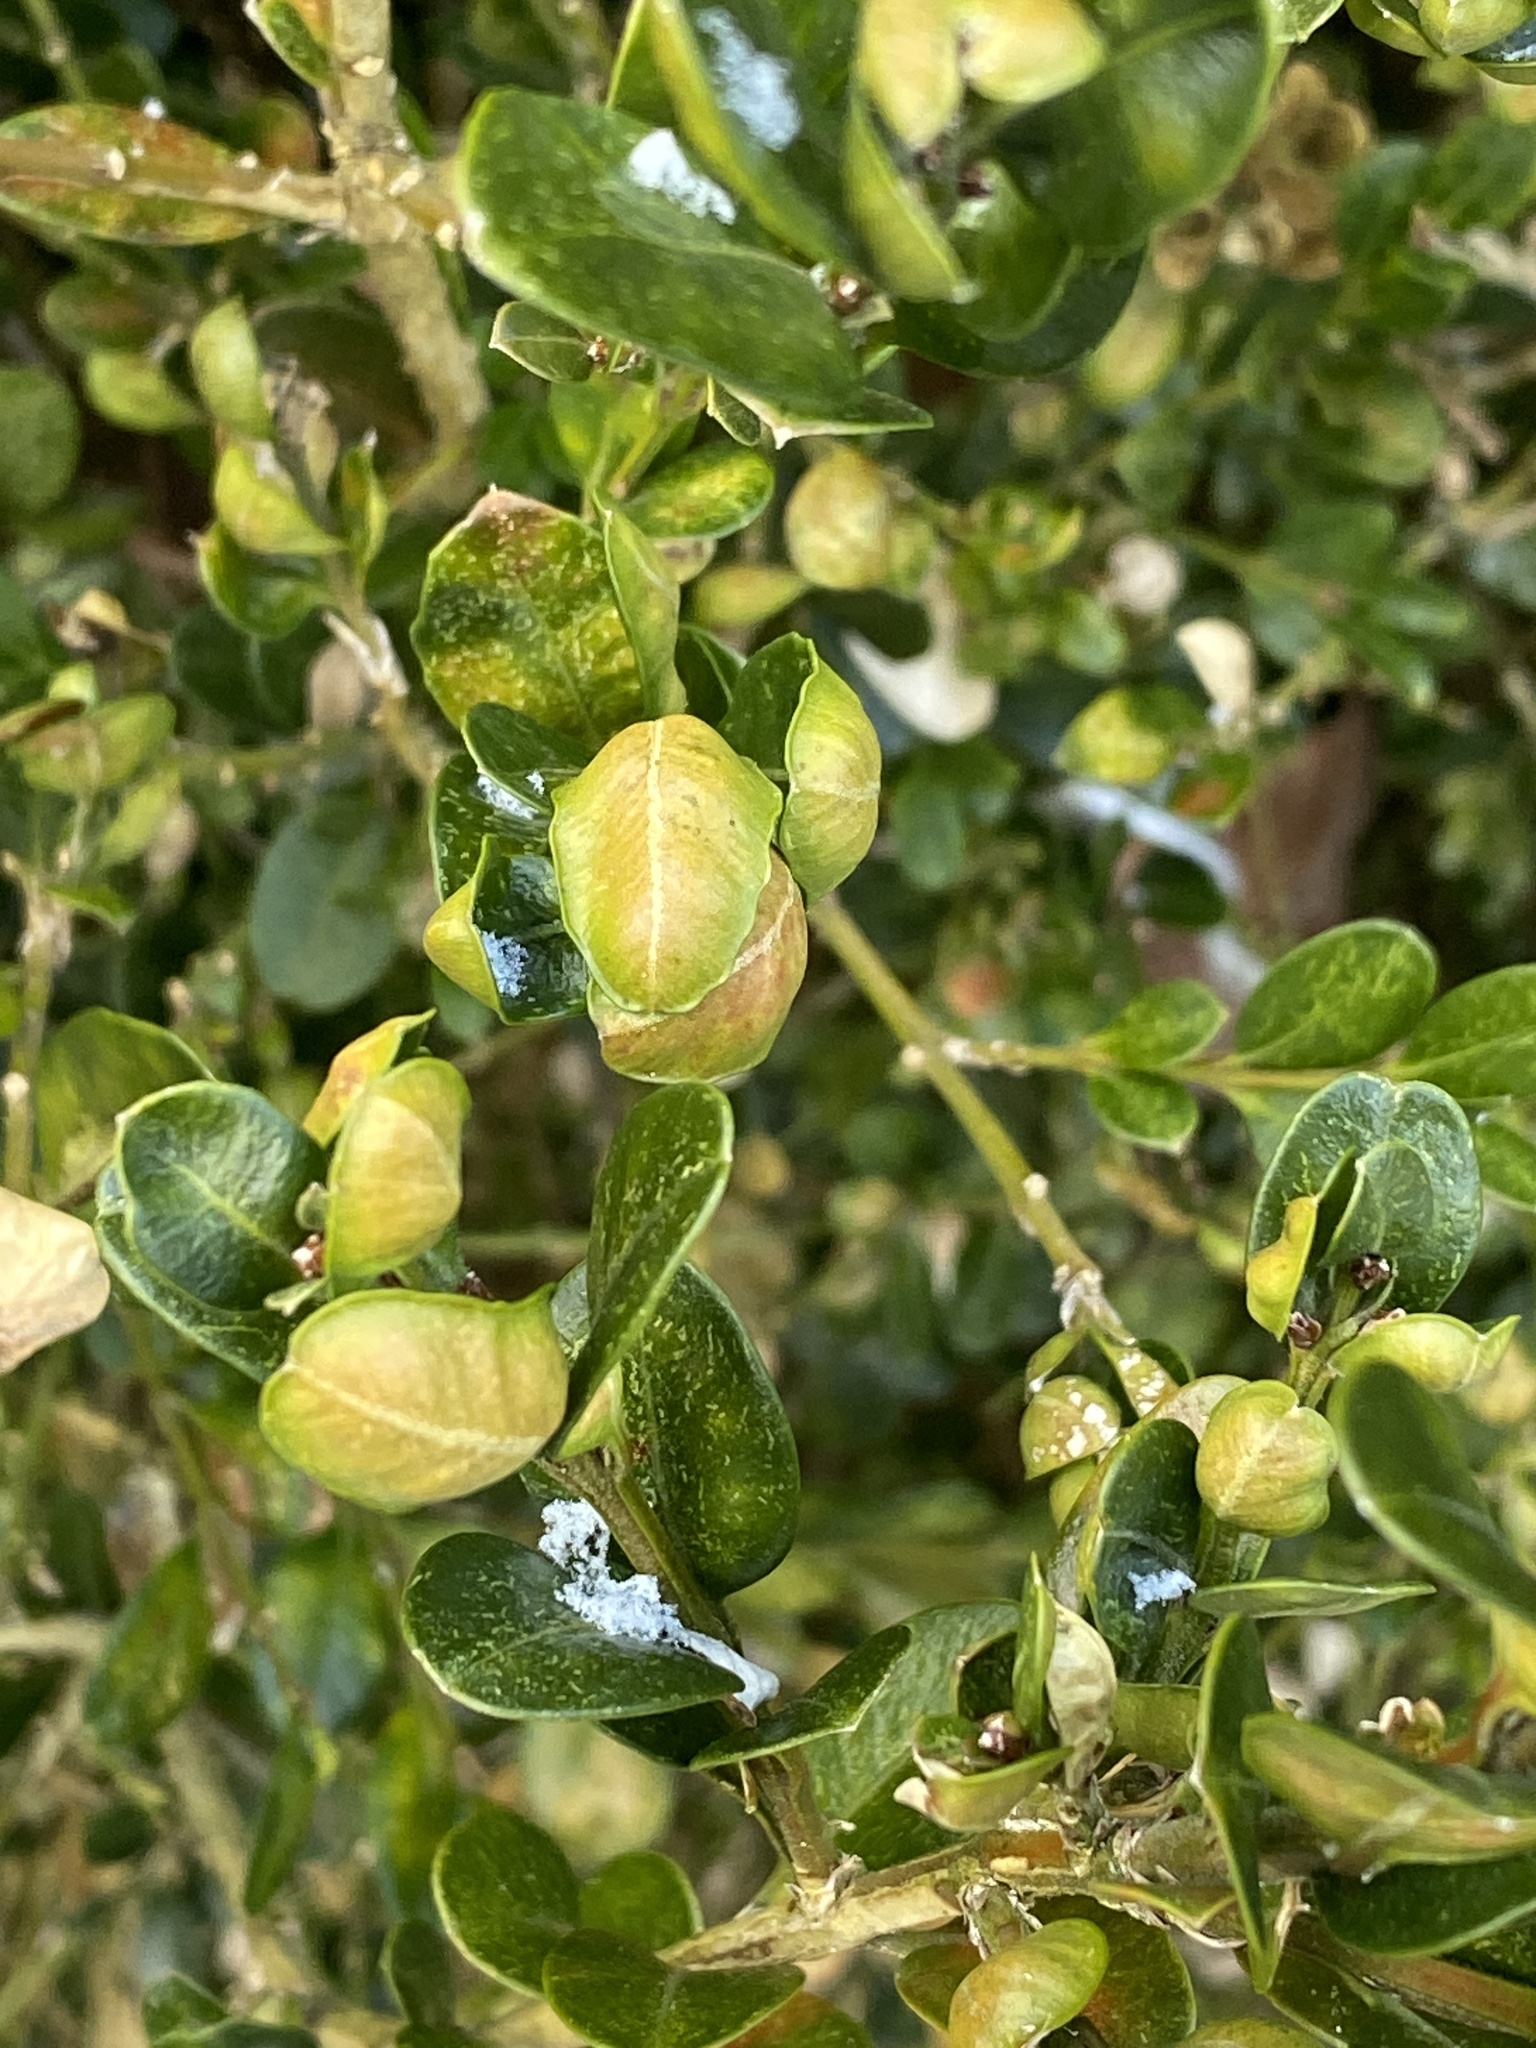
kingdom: Animalia
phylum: Arthropoda
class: Insecta
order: Hemiptera
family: Psyllidae
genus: Psylla
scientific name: Psylla buxi
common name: Boxwood psyllid
